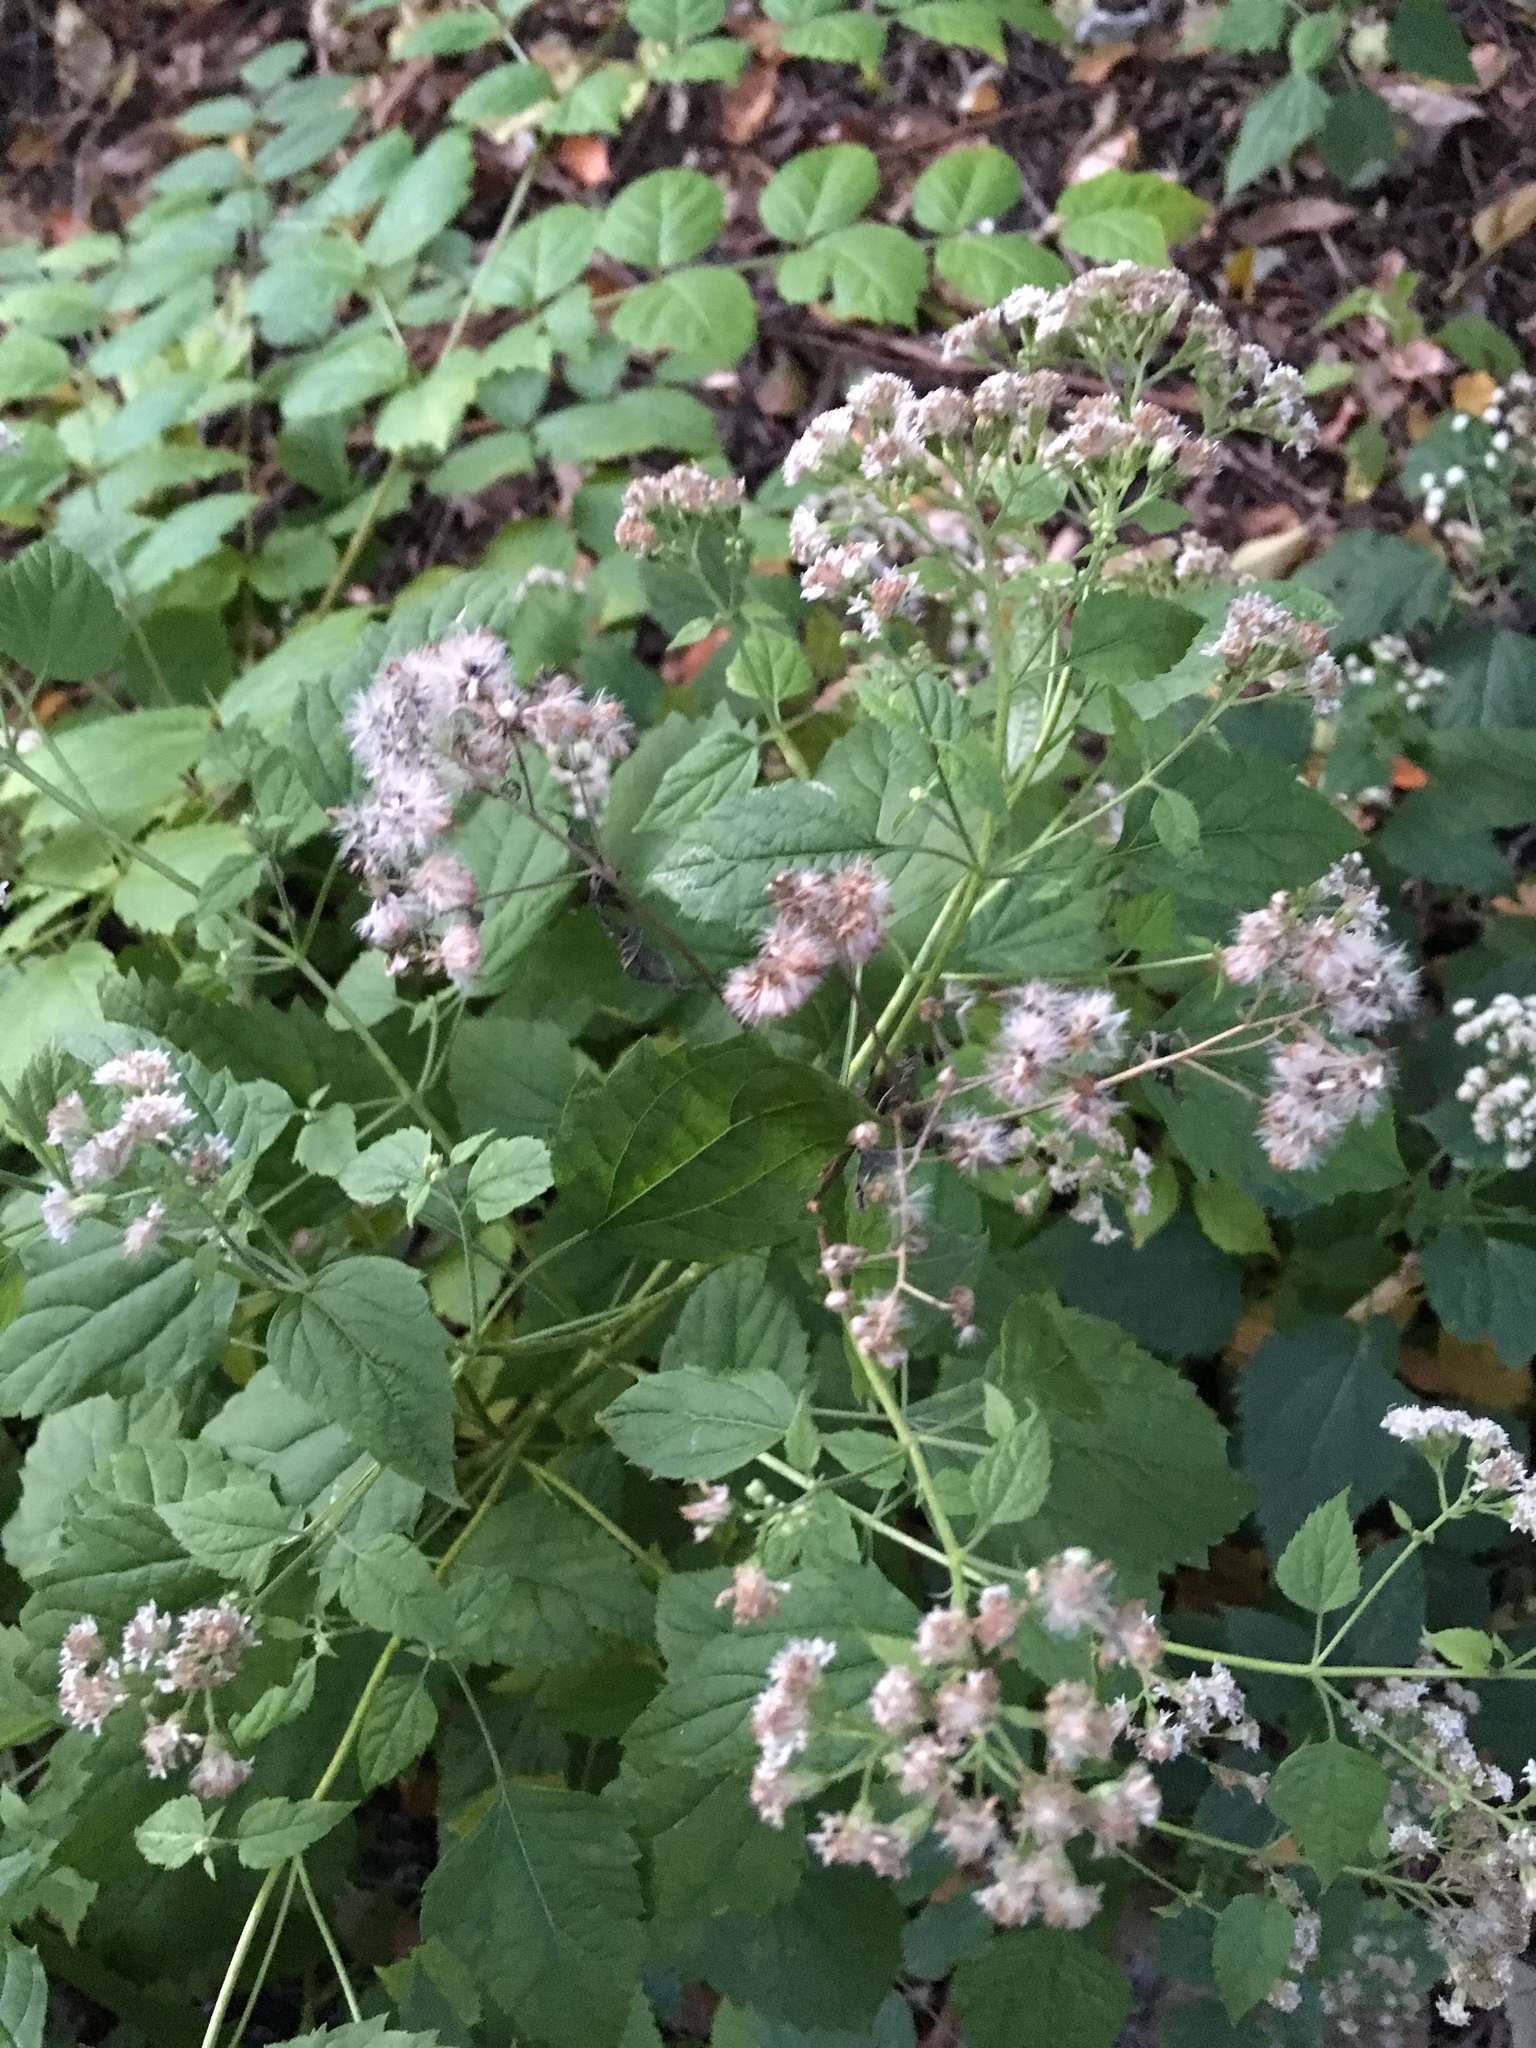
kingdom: Plantae
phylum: Tracheophyta
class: Magnoliopsida
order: Asterales
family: Asteraceae
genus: Ageratina
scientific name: Ageratina altissima
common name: White snakeroot
